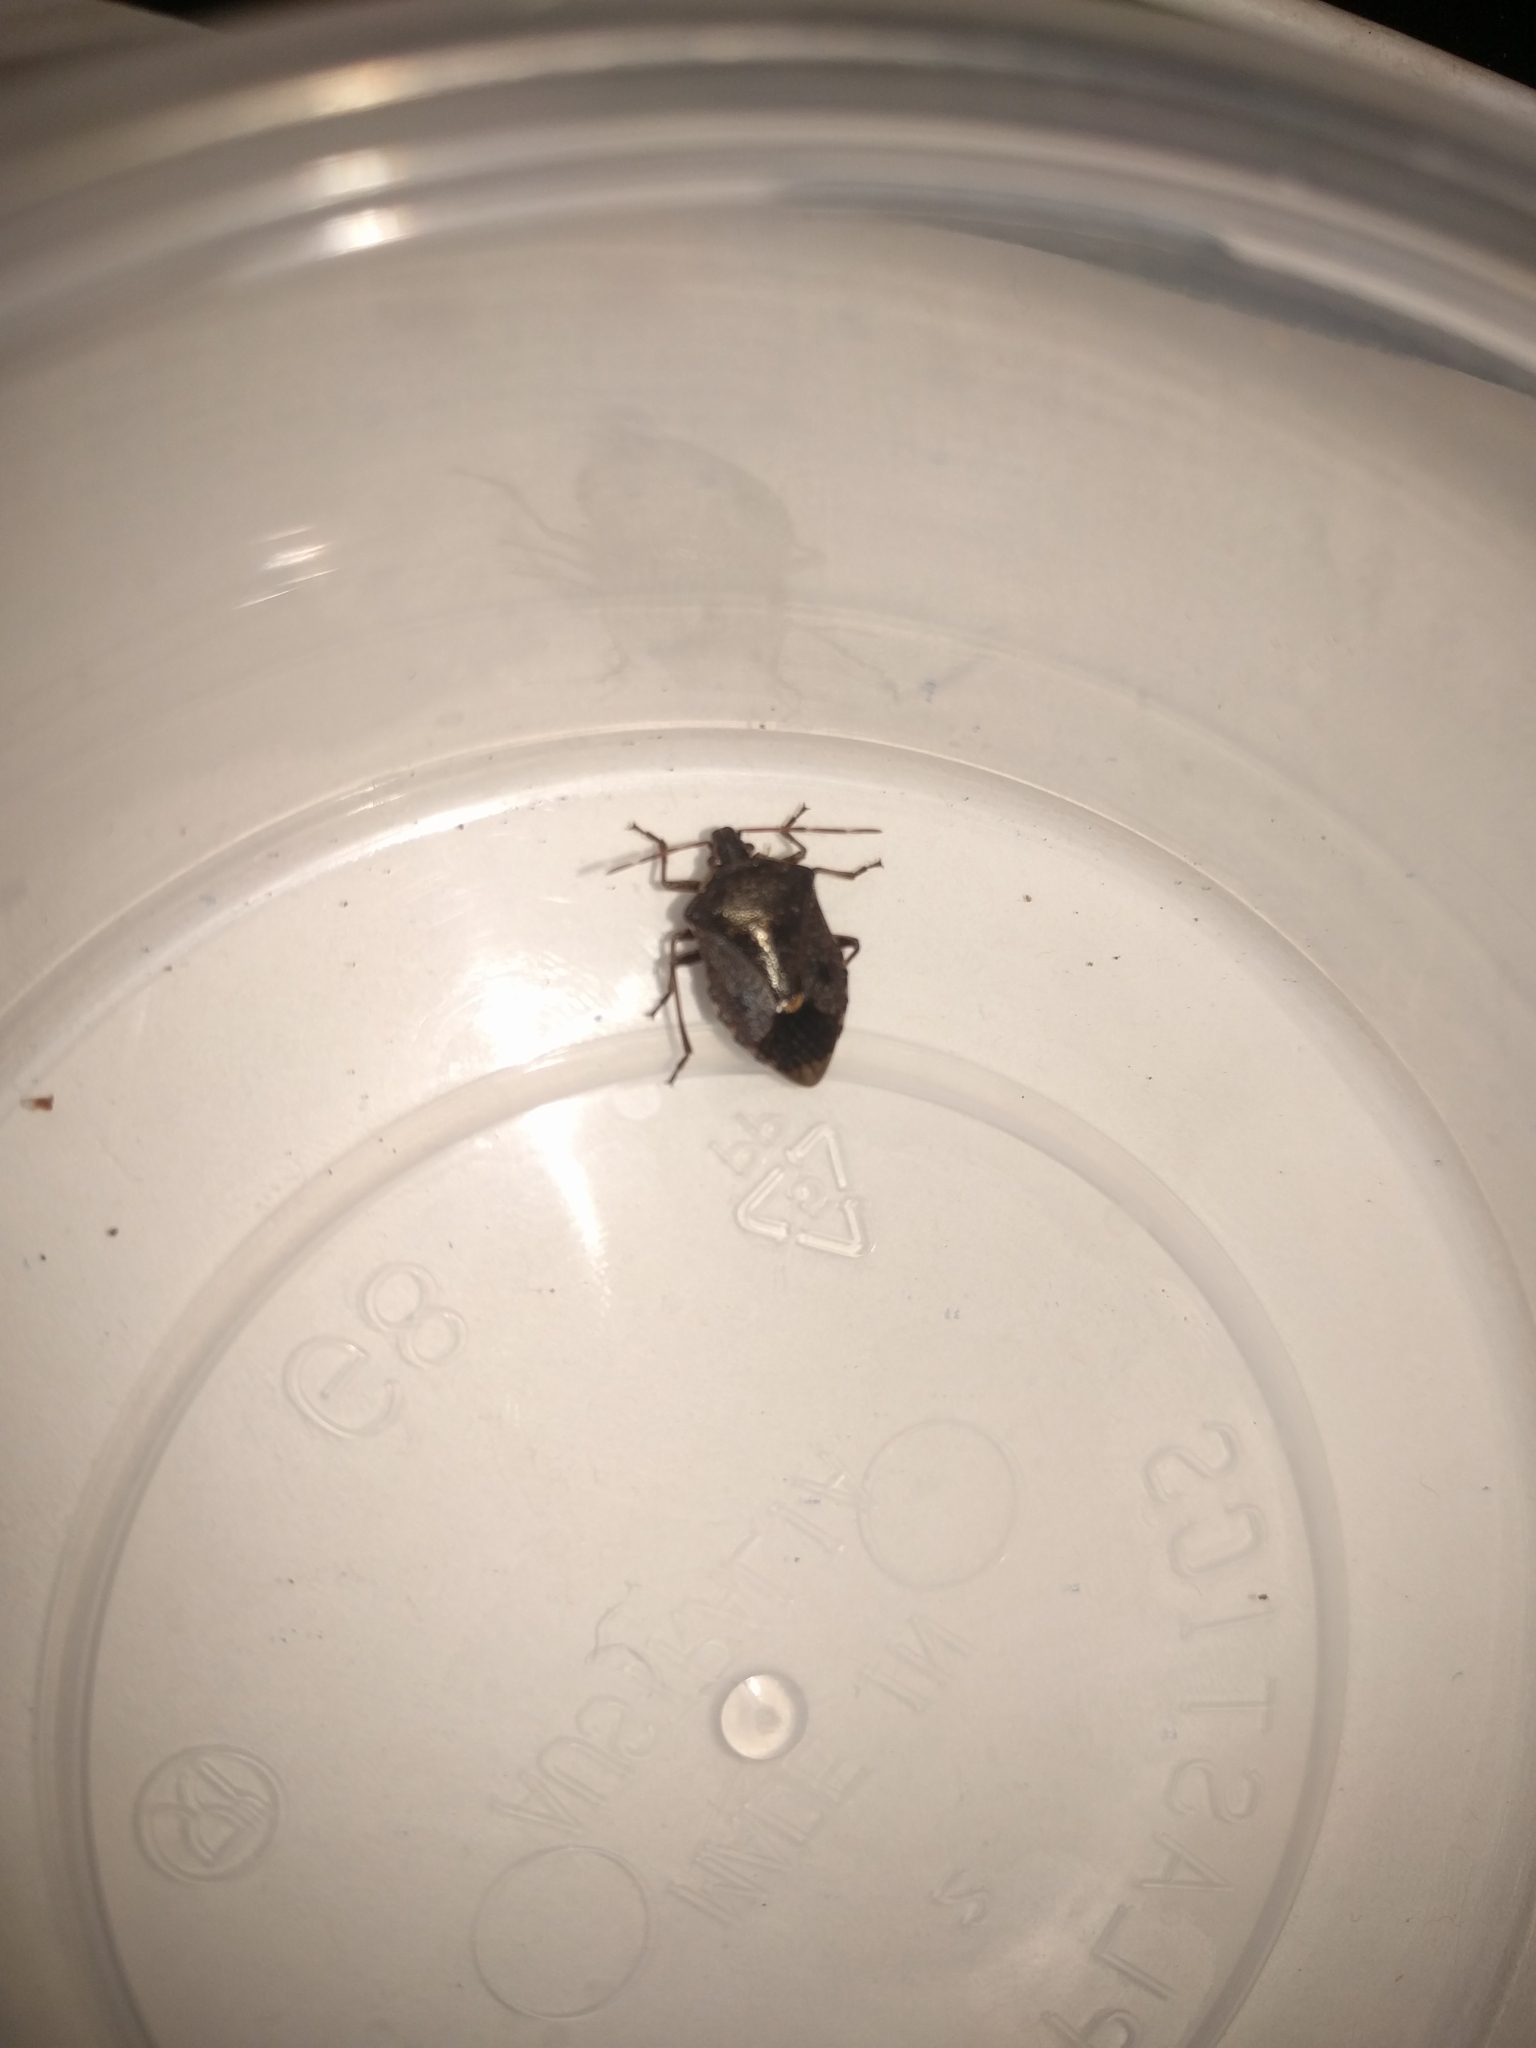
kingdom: Animalia
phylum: Arthropoda
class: Insecta
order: Hemiptera
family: Pentatomidae
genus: Cermatulus
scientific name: Cermatulus nasalis
